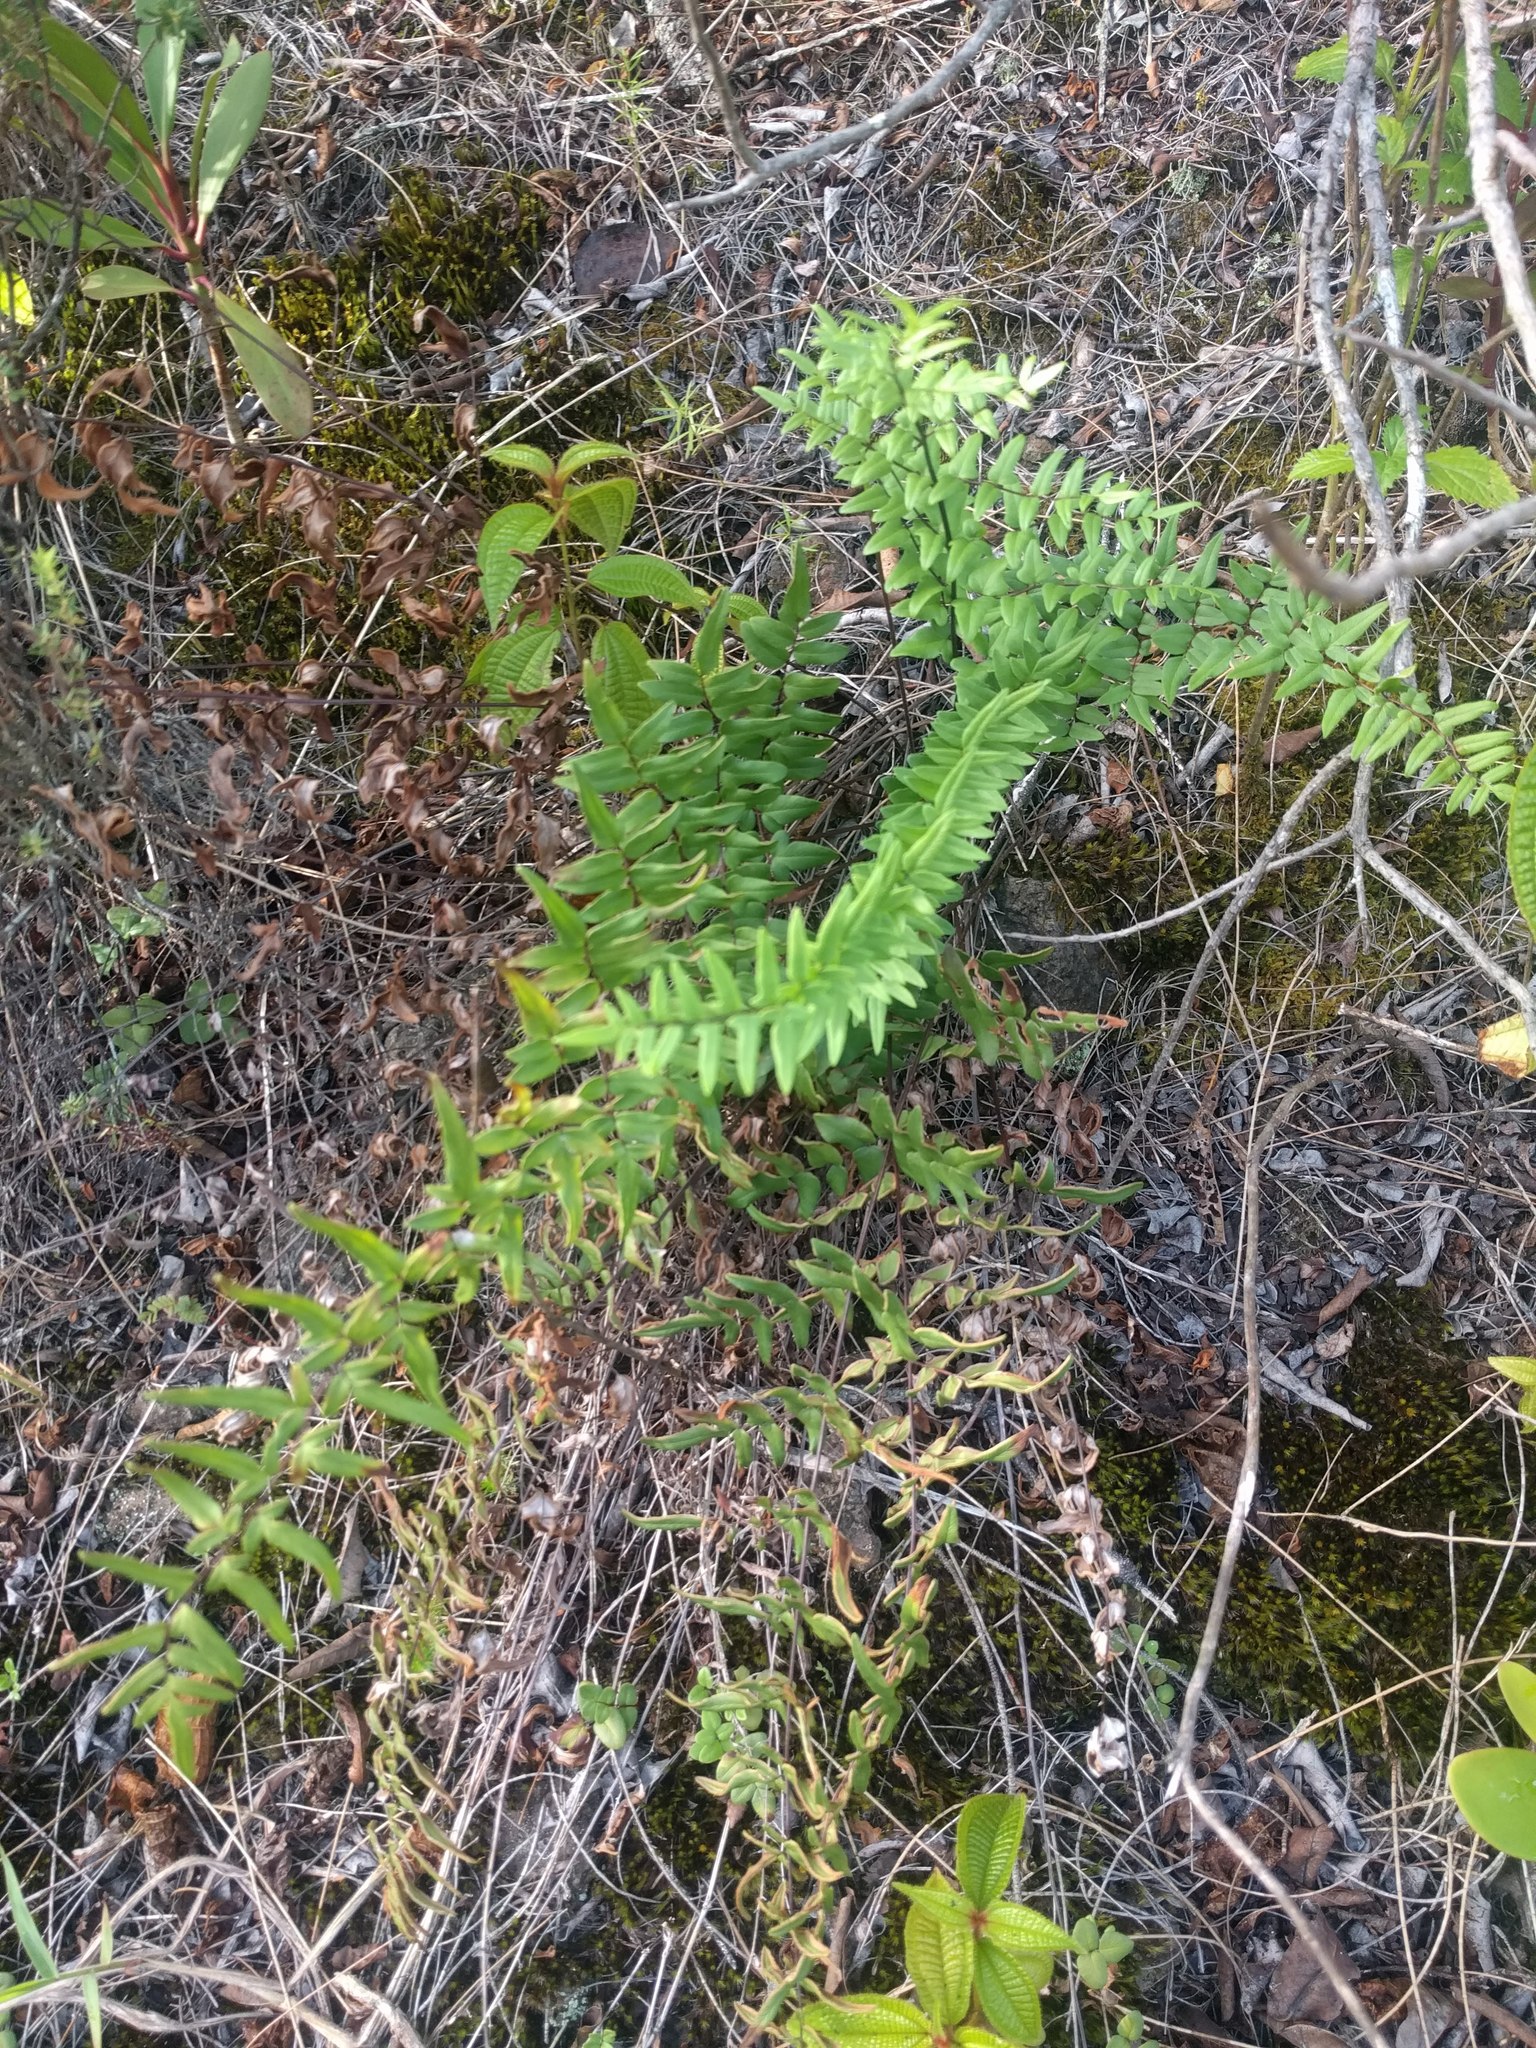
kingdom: Plantae
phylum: Tracheophyta
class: Polypodiopsida
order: Polypodiales
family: Pteridaceae
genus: Cheilanthes
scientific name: Cheilanthes viridis
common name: Green cliffbrake
